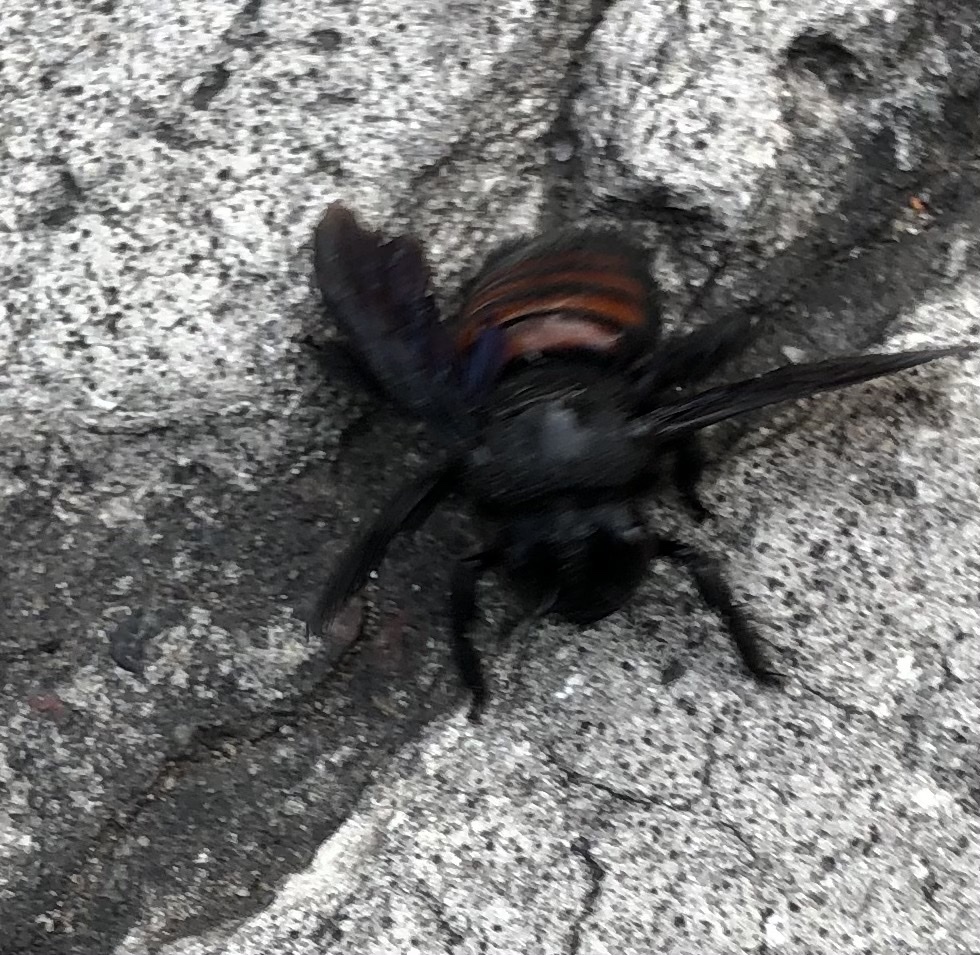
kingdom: Animalia
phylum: Arthropoda
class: Insecta
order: Hymenoptera
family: Apidae
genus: Xylocopa
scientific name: Xylocopa frontalis
